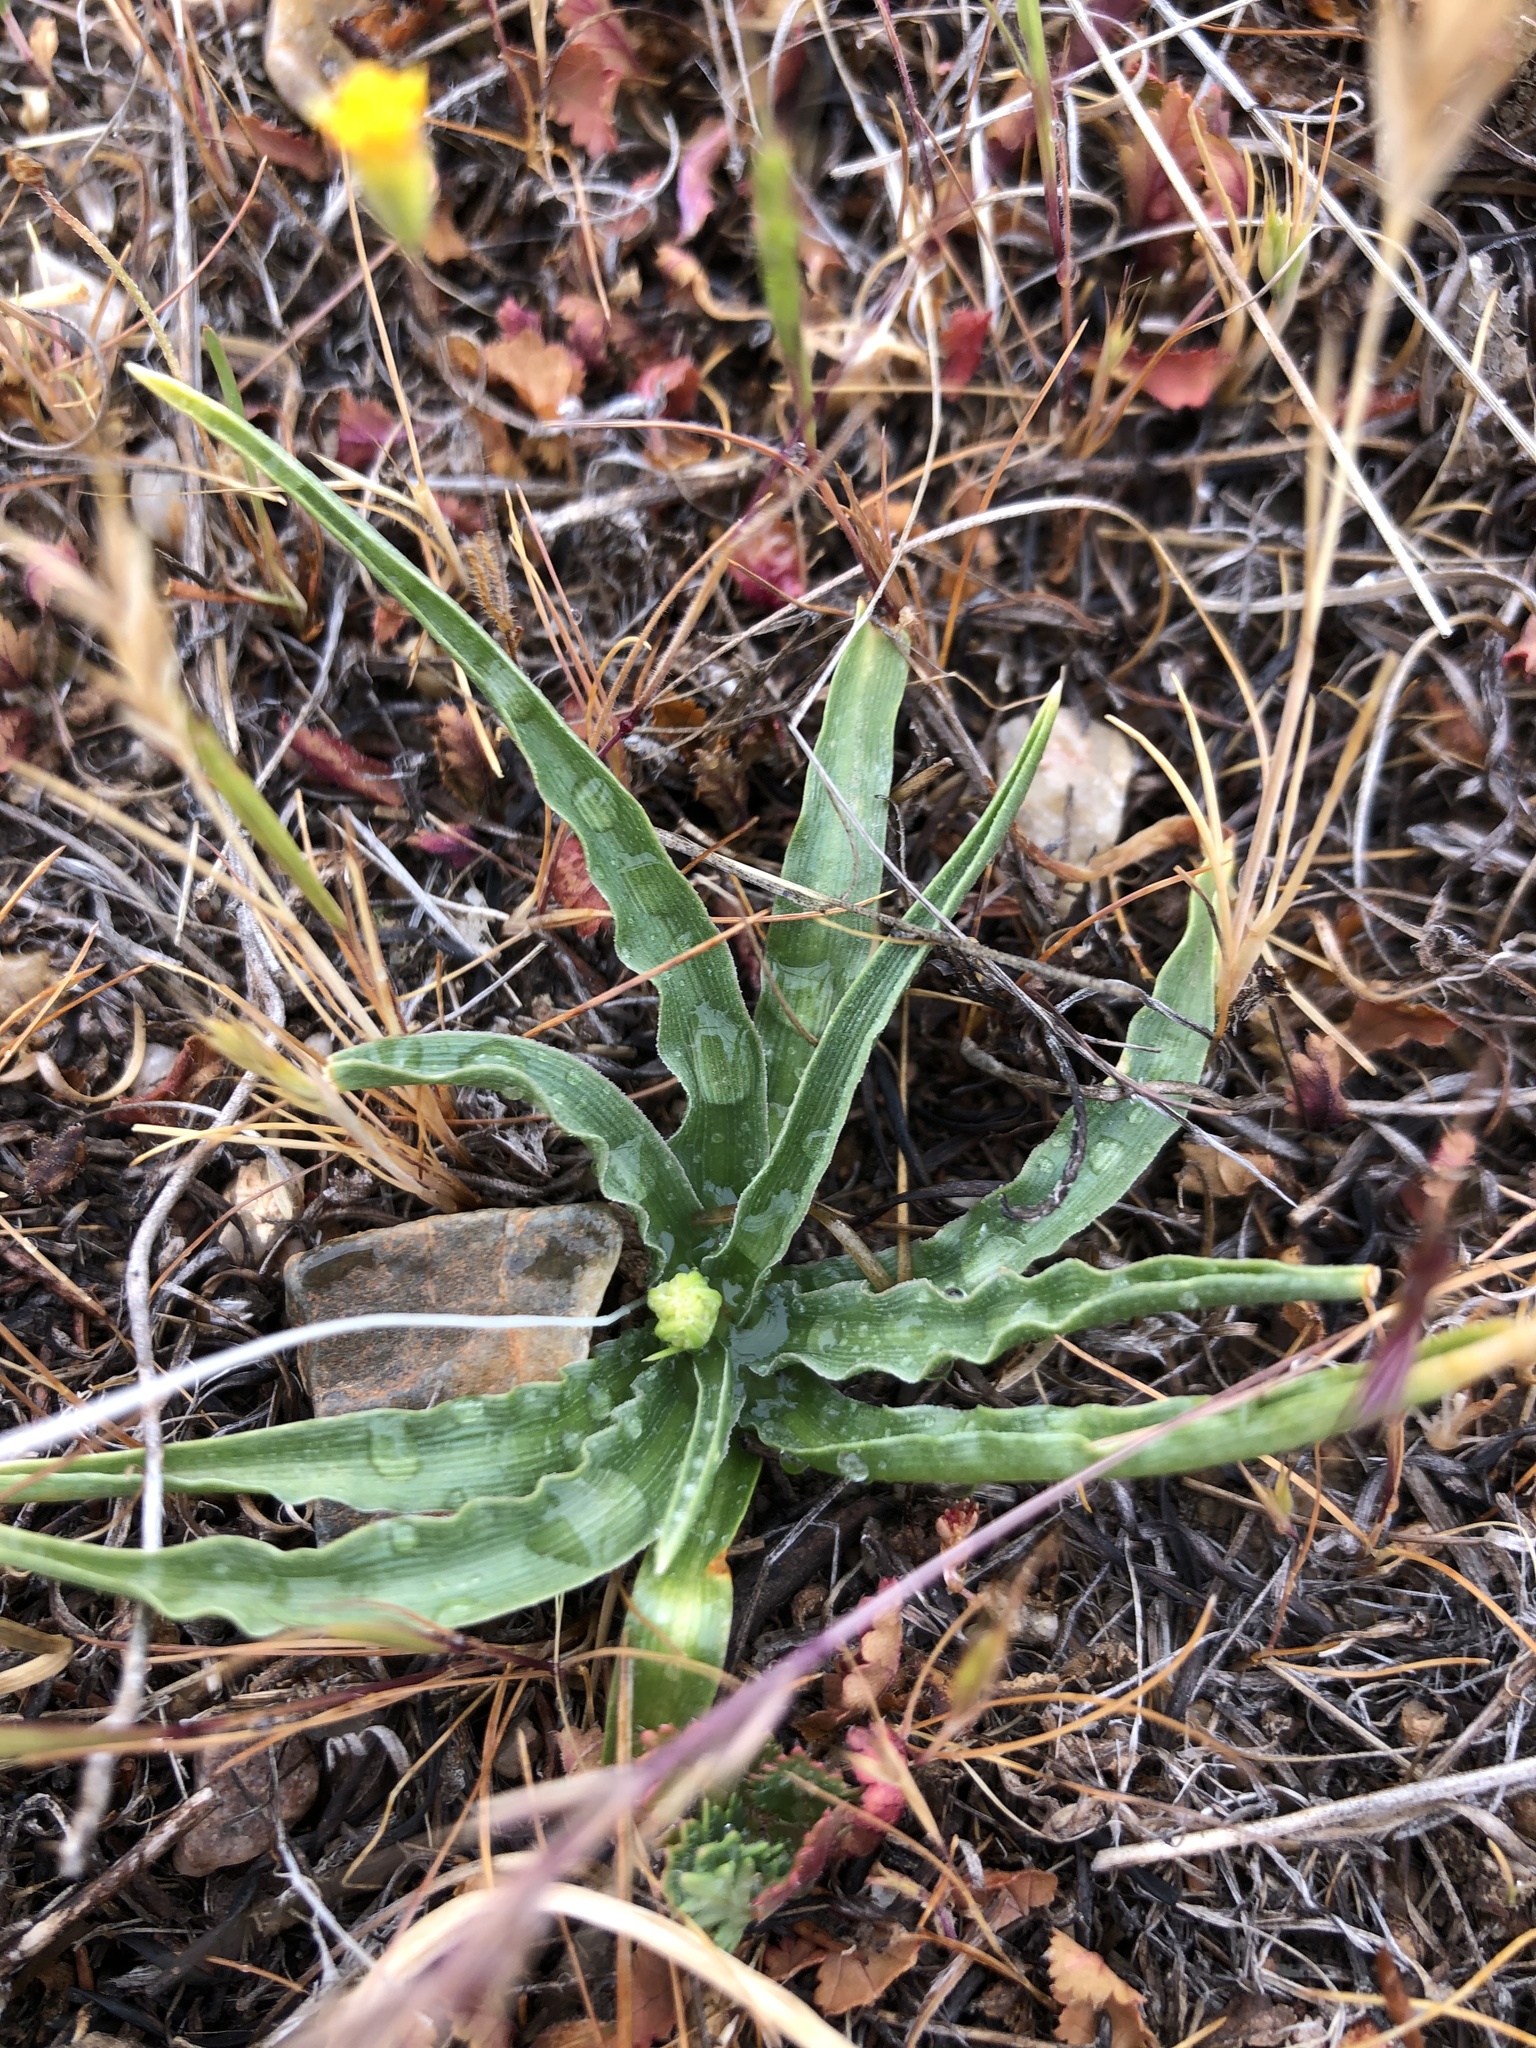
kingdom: Plantae
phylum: Tracheophyta
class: Liliopsida
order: Asparagales
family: Asparagaceae
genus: Hooveria
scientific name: Hooveria purpurea
